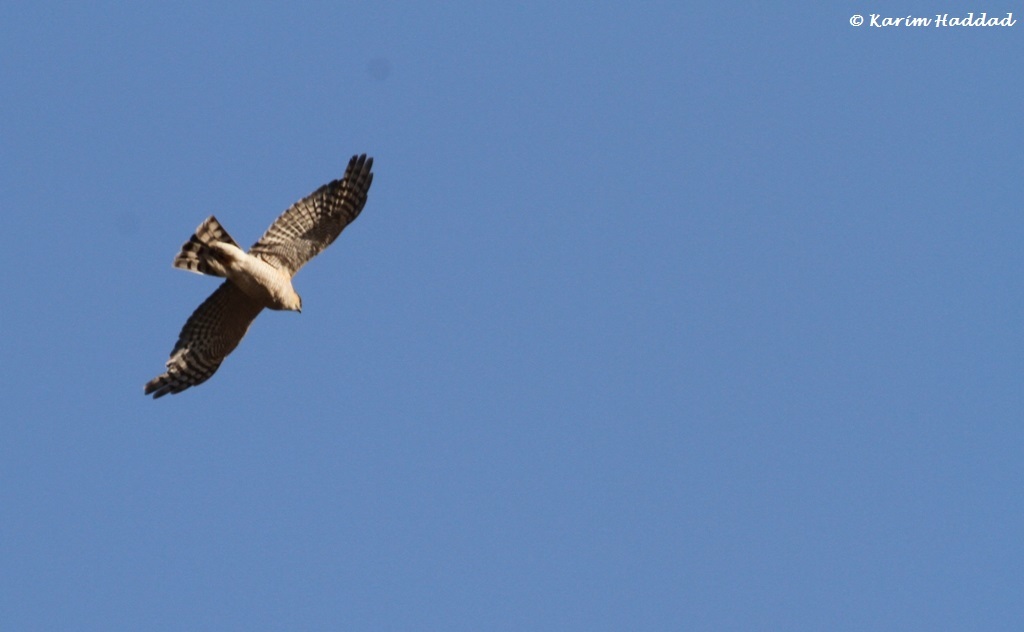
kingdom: Animalia
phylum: Chordata
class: Aves
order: Accipitriformes
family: Accipitridae
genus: Accipiter
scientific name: Accipiter nisus
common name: Eurasian sparrowhawk
